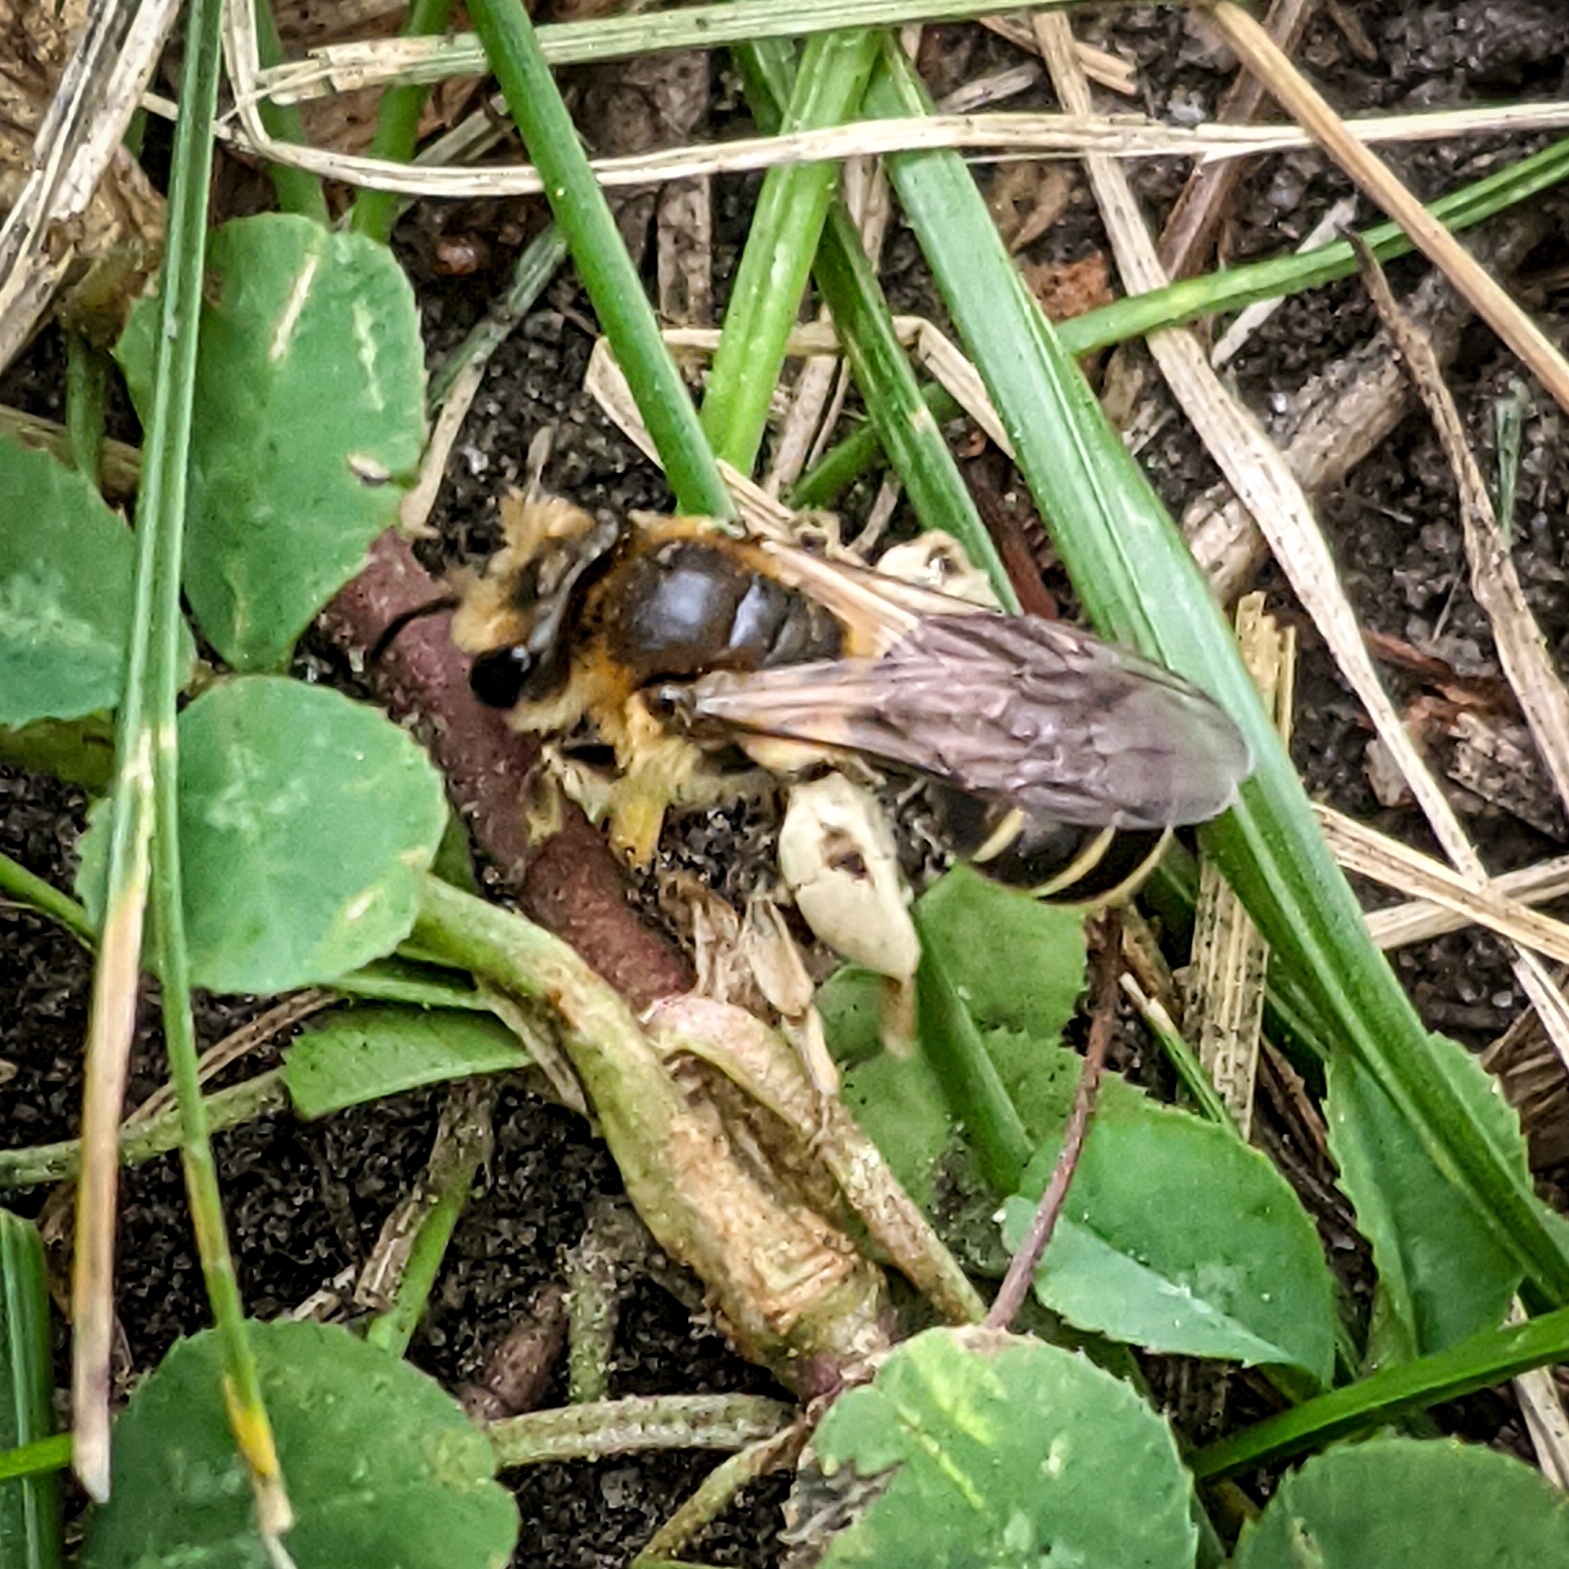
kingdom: Animalia
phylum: Arthropoda
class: Insecta
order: Hymenoptera
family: Andrenidae
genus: Andrena
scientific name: Andrena wilkella
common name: Wilke's mining bee
